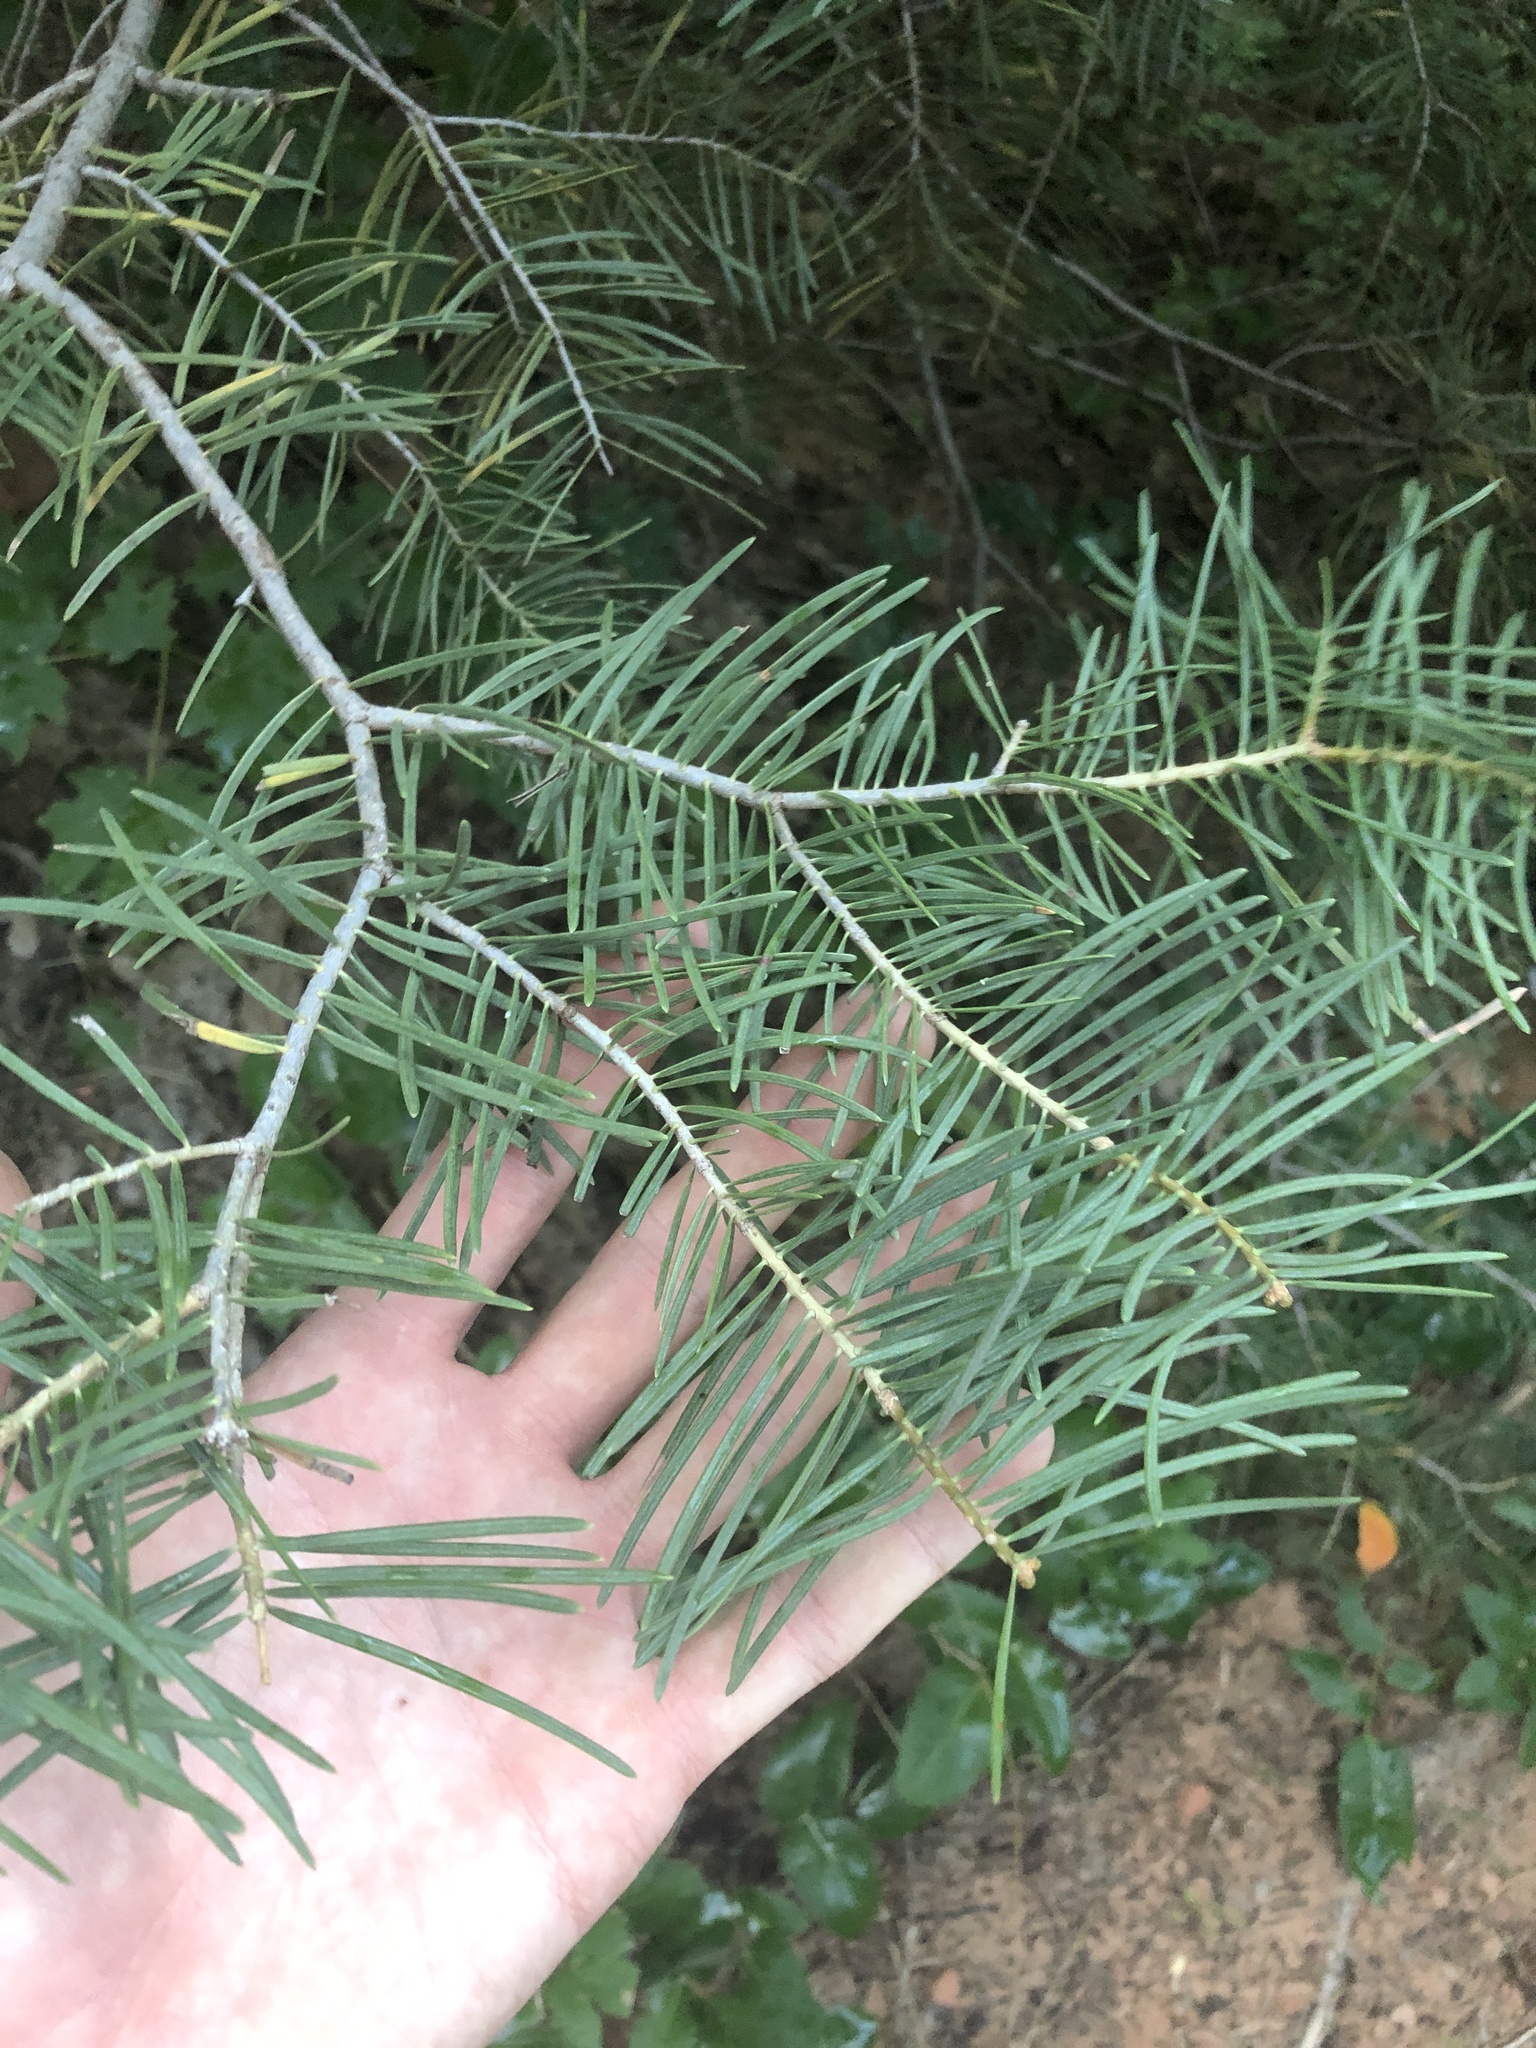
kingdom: Plantae
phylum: Tracheophyta
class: Pinopsida
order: Pinales
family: Pinaceae
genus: Abies
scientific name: Abies concolor
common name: Colorado fir
